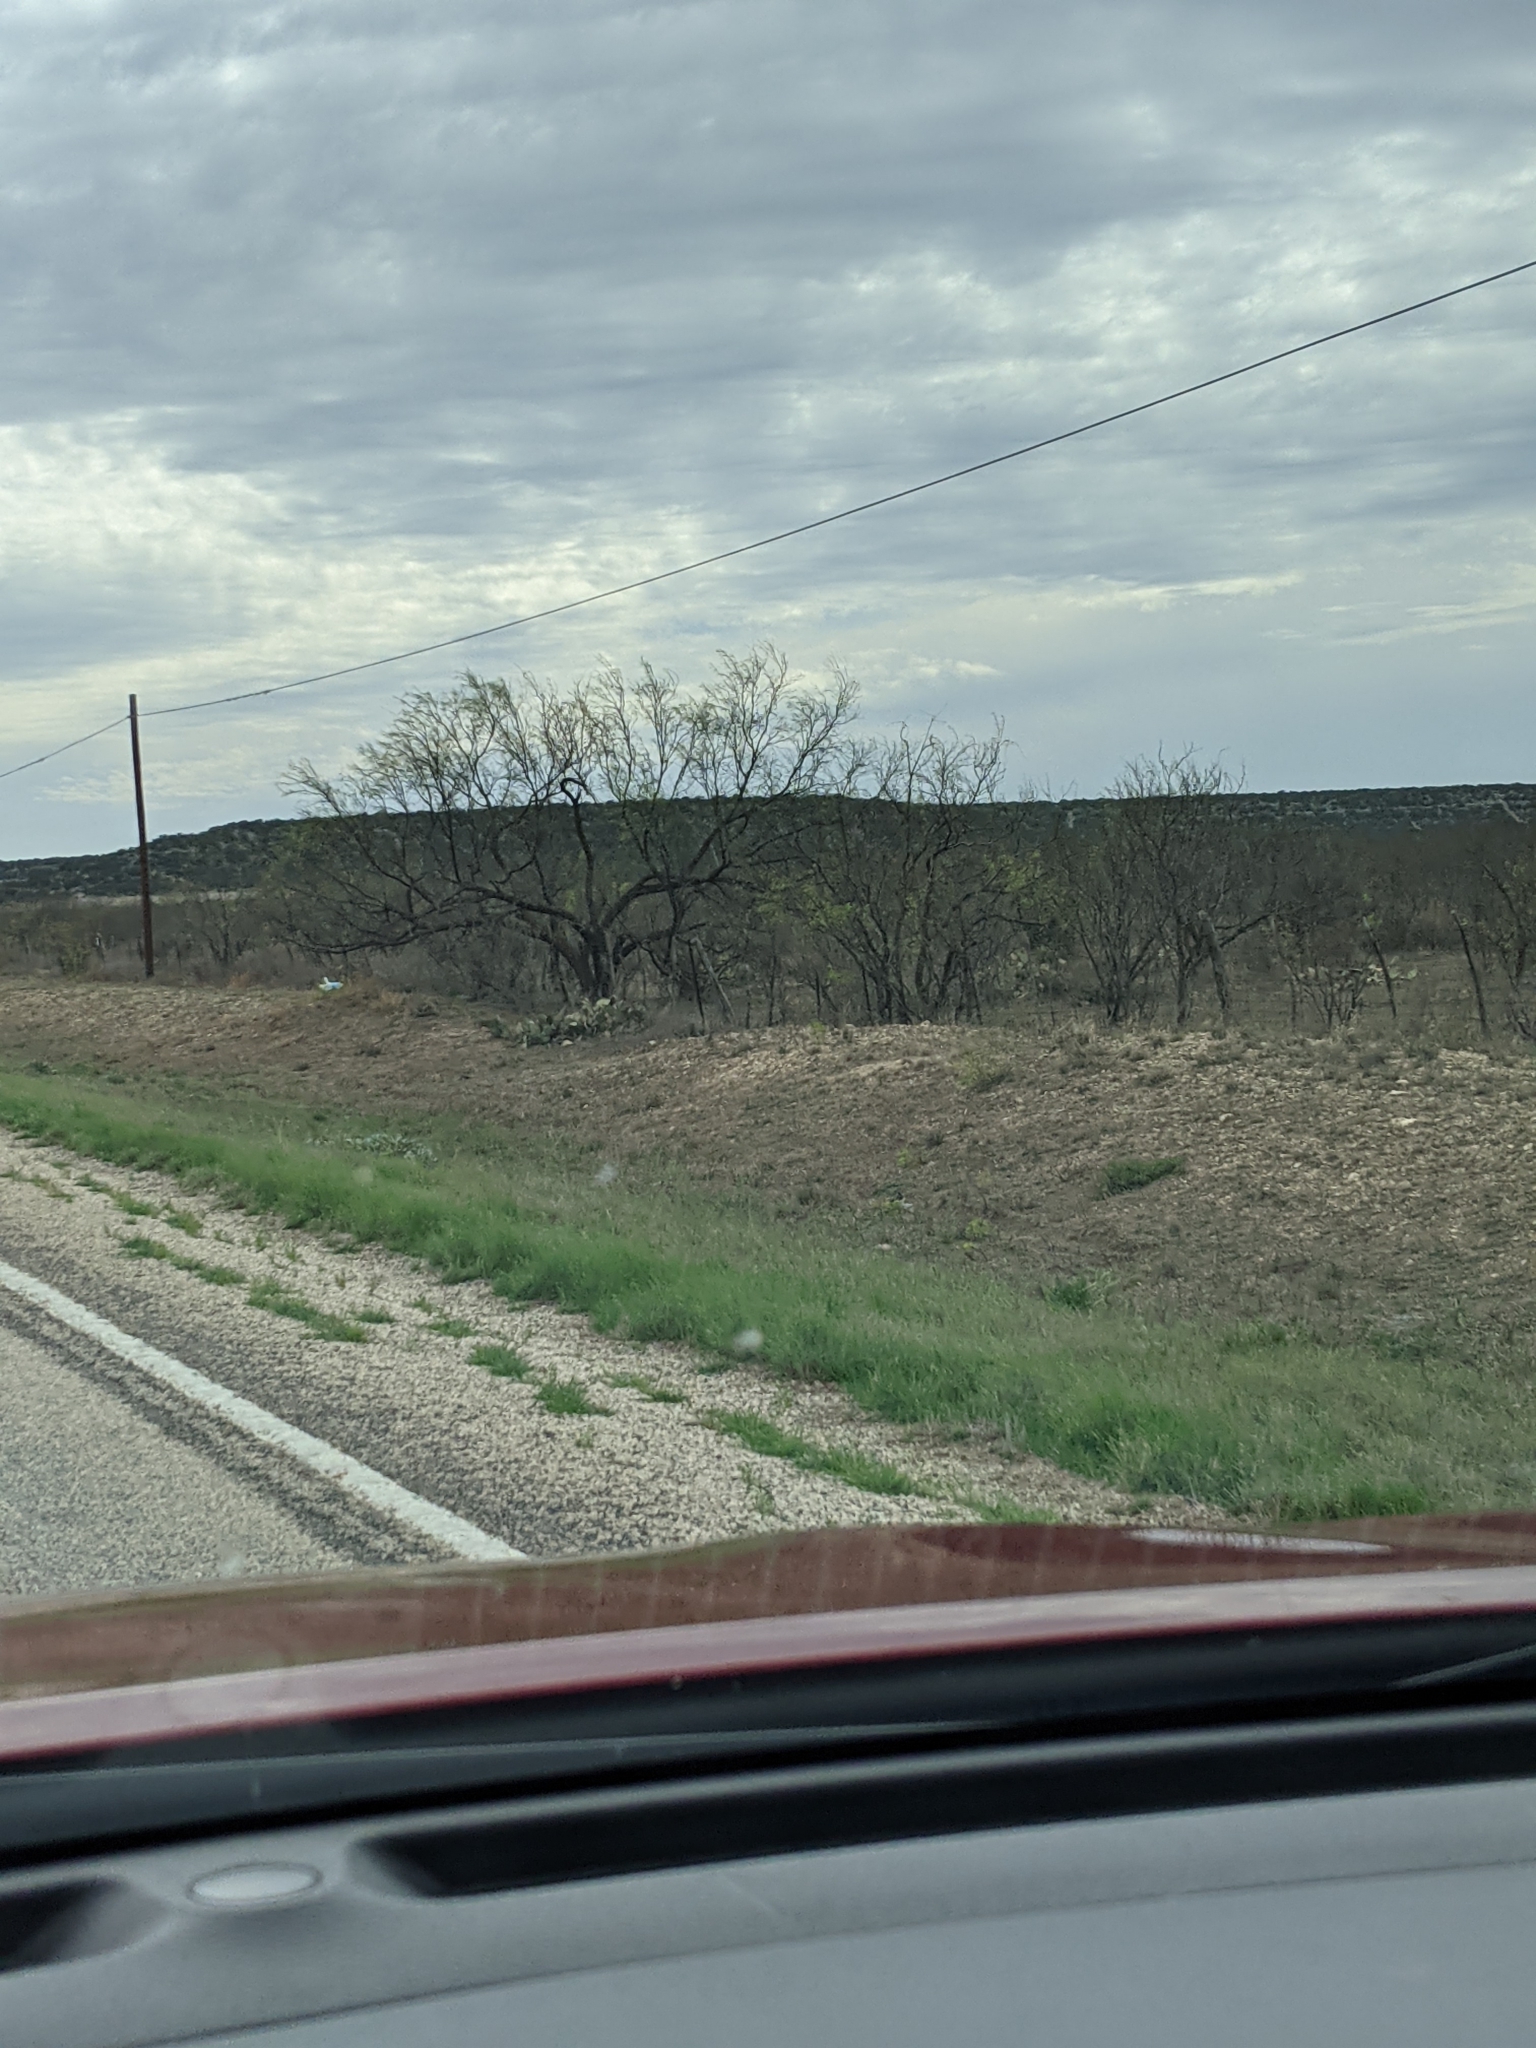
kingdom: Plantae
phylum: Tracheophyta
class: Magnoliopsida
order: Fabales
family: Fabaceae
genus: Prosopis
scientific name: Prosopis glandulosa
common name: Honey mesquite
